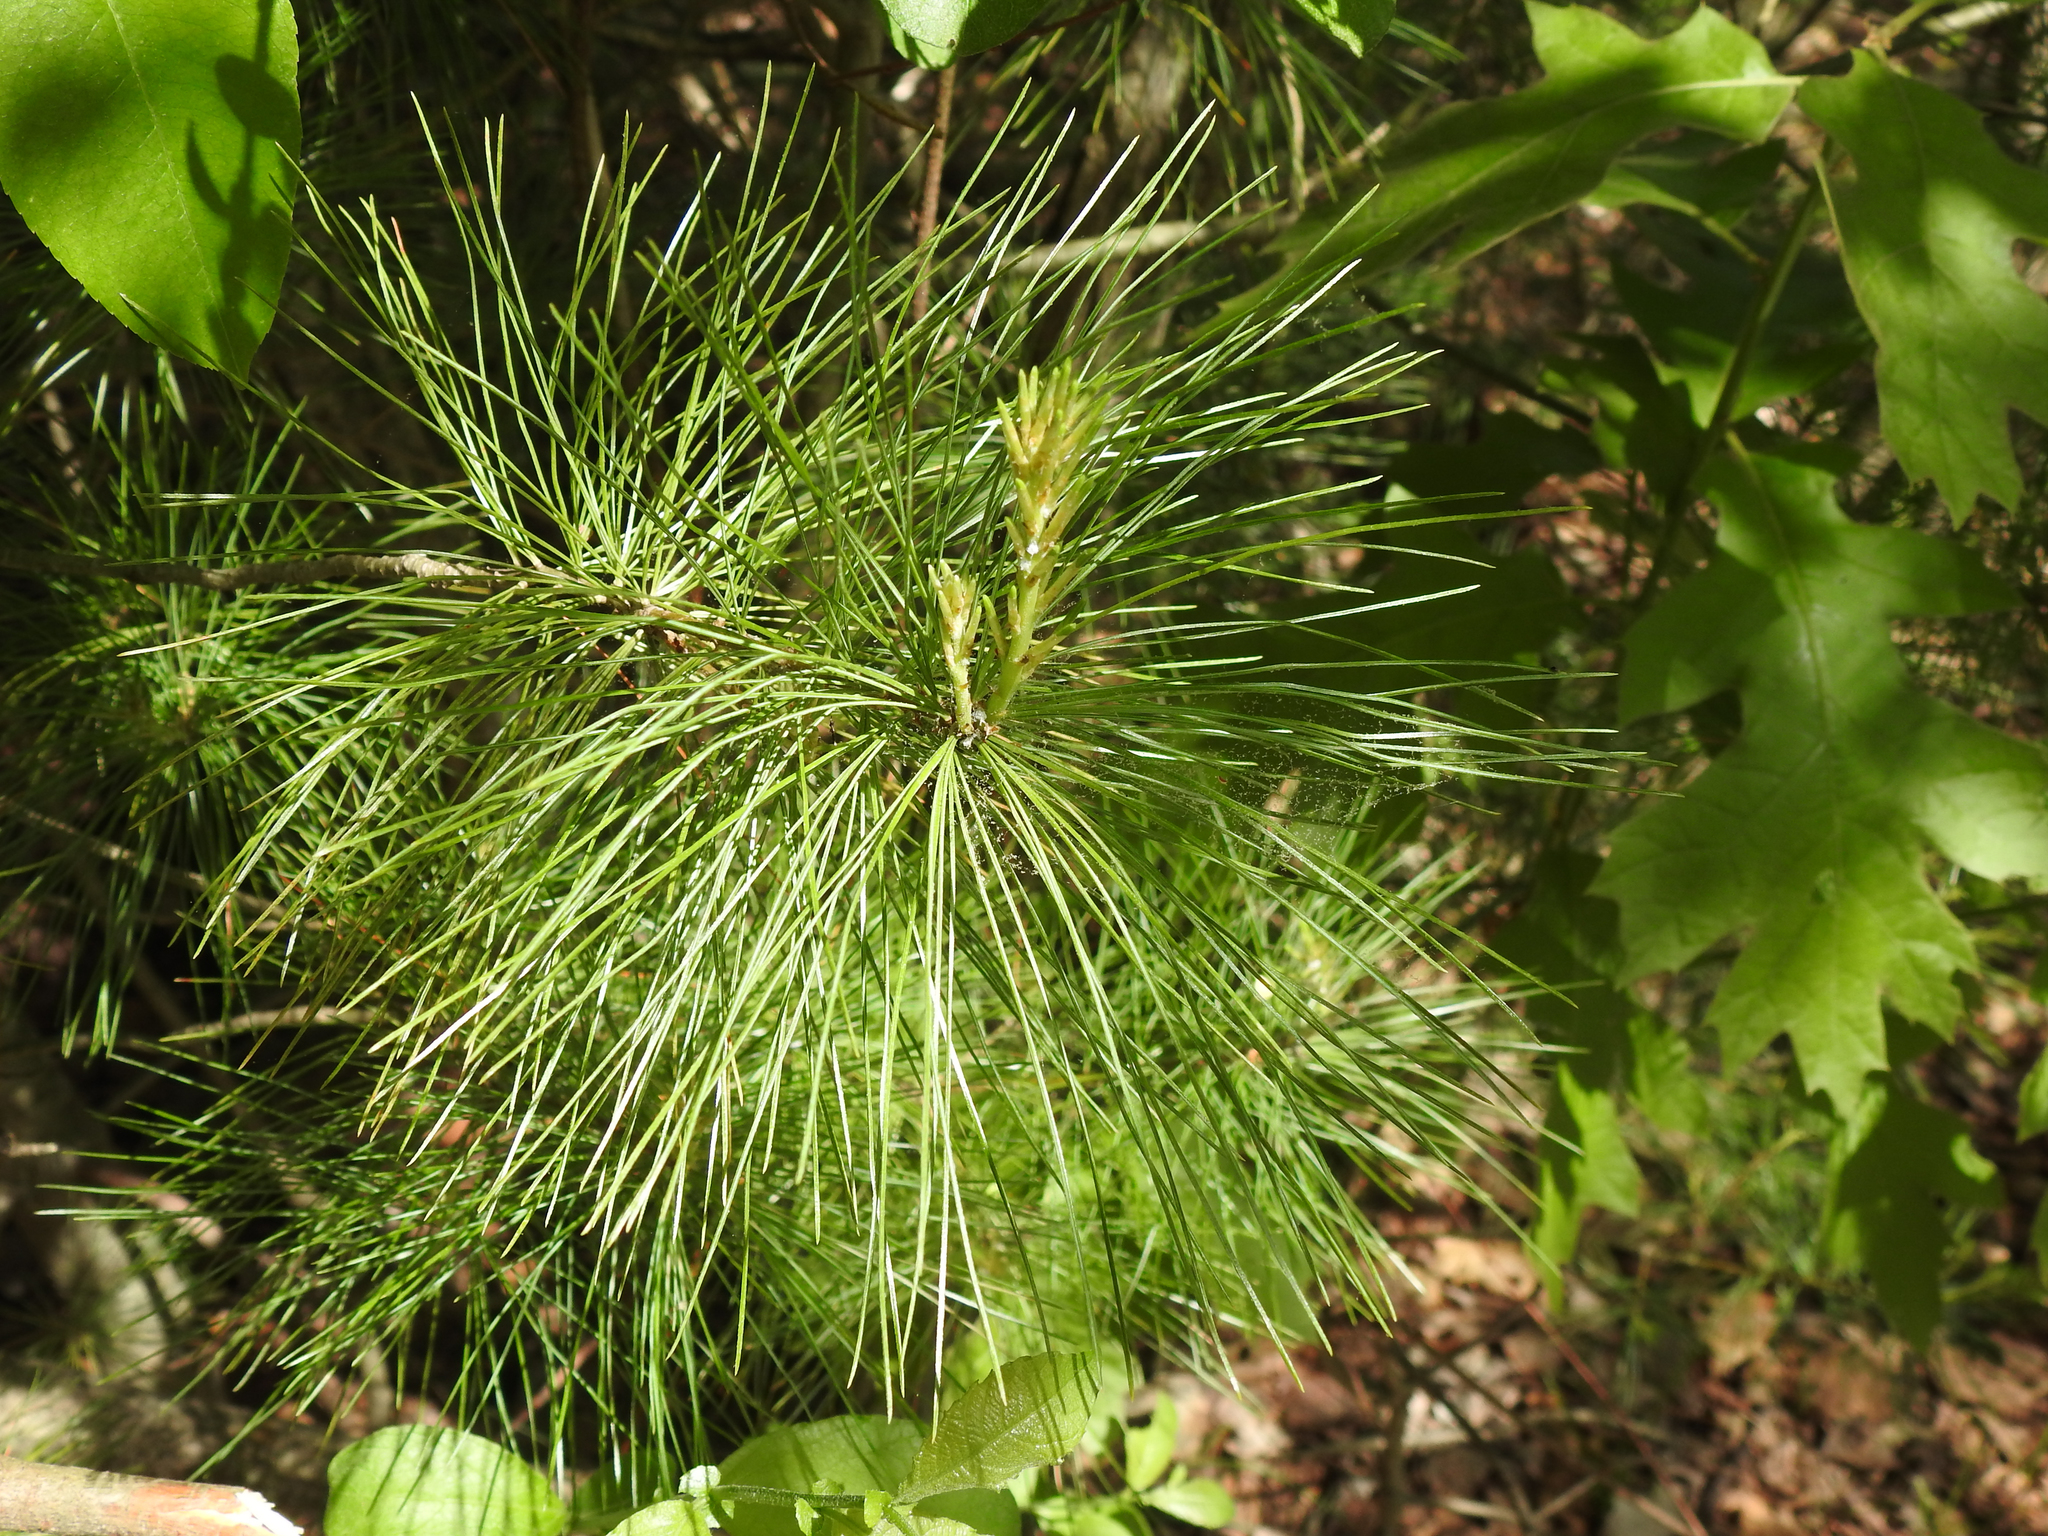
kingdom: Plantae
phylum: Tracheophyta
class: Pinopsida
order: Pinales
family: Pinaceae
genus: Pinus
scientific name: Pinus strobus
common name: Weymouth pine
